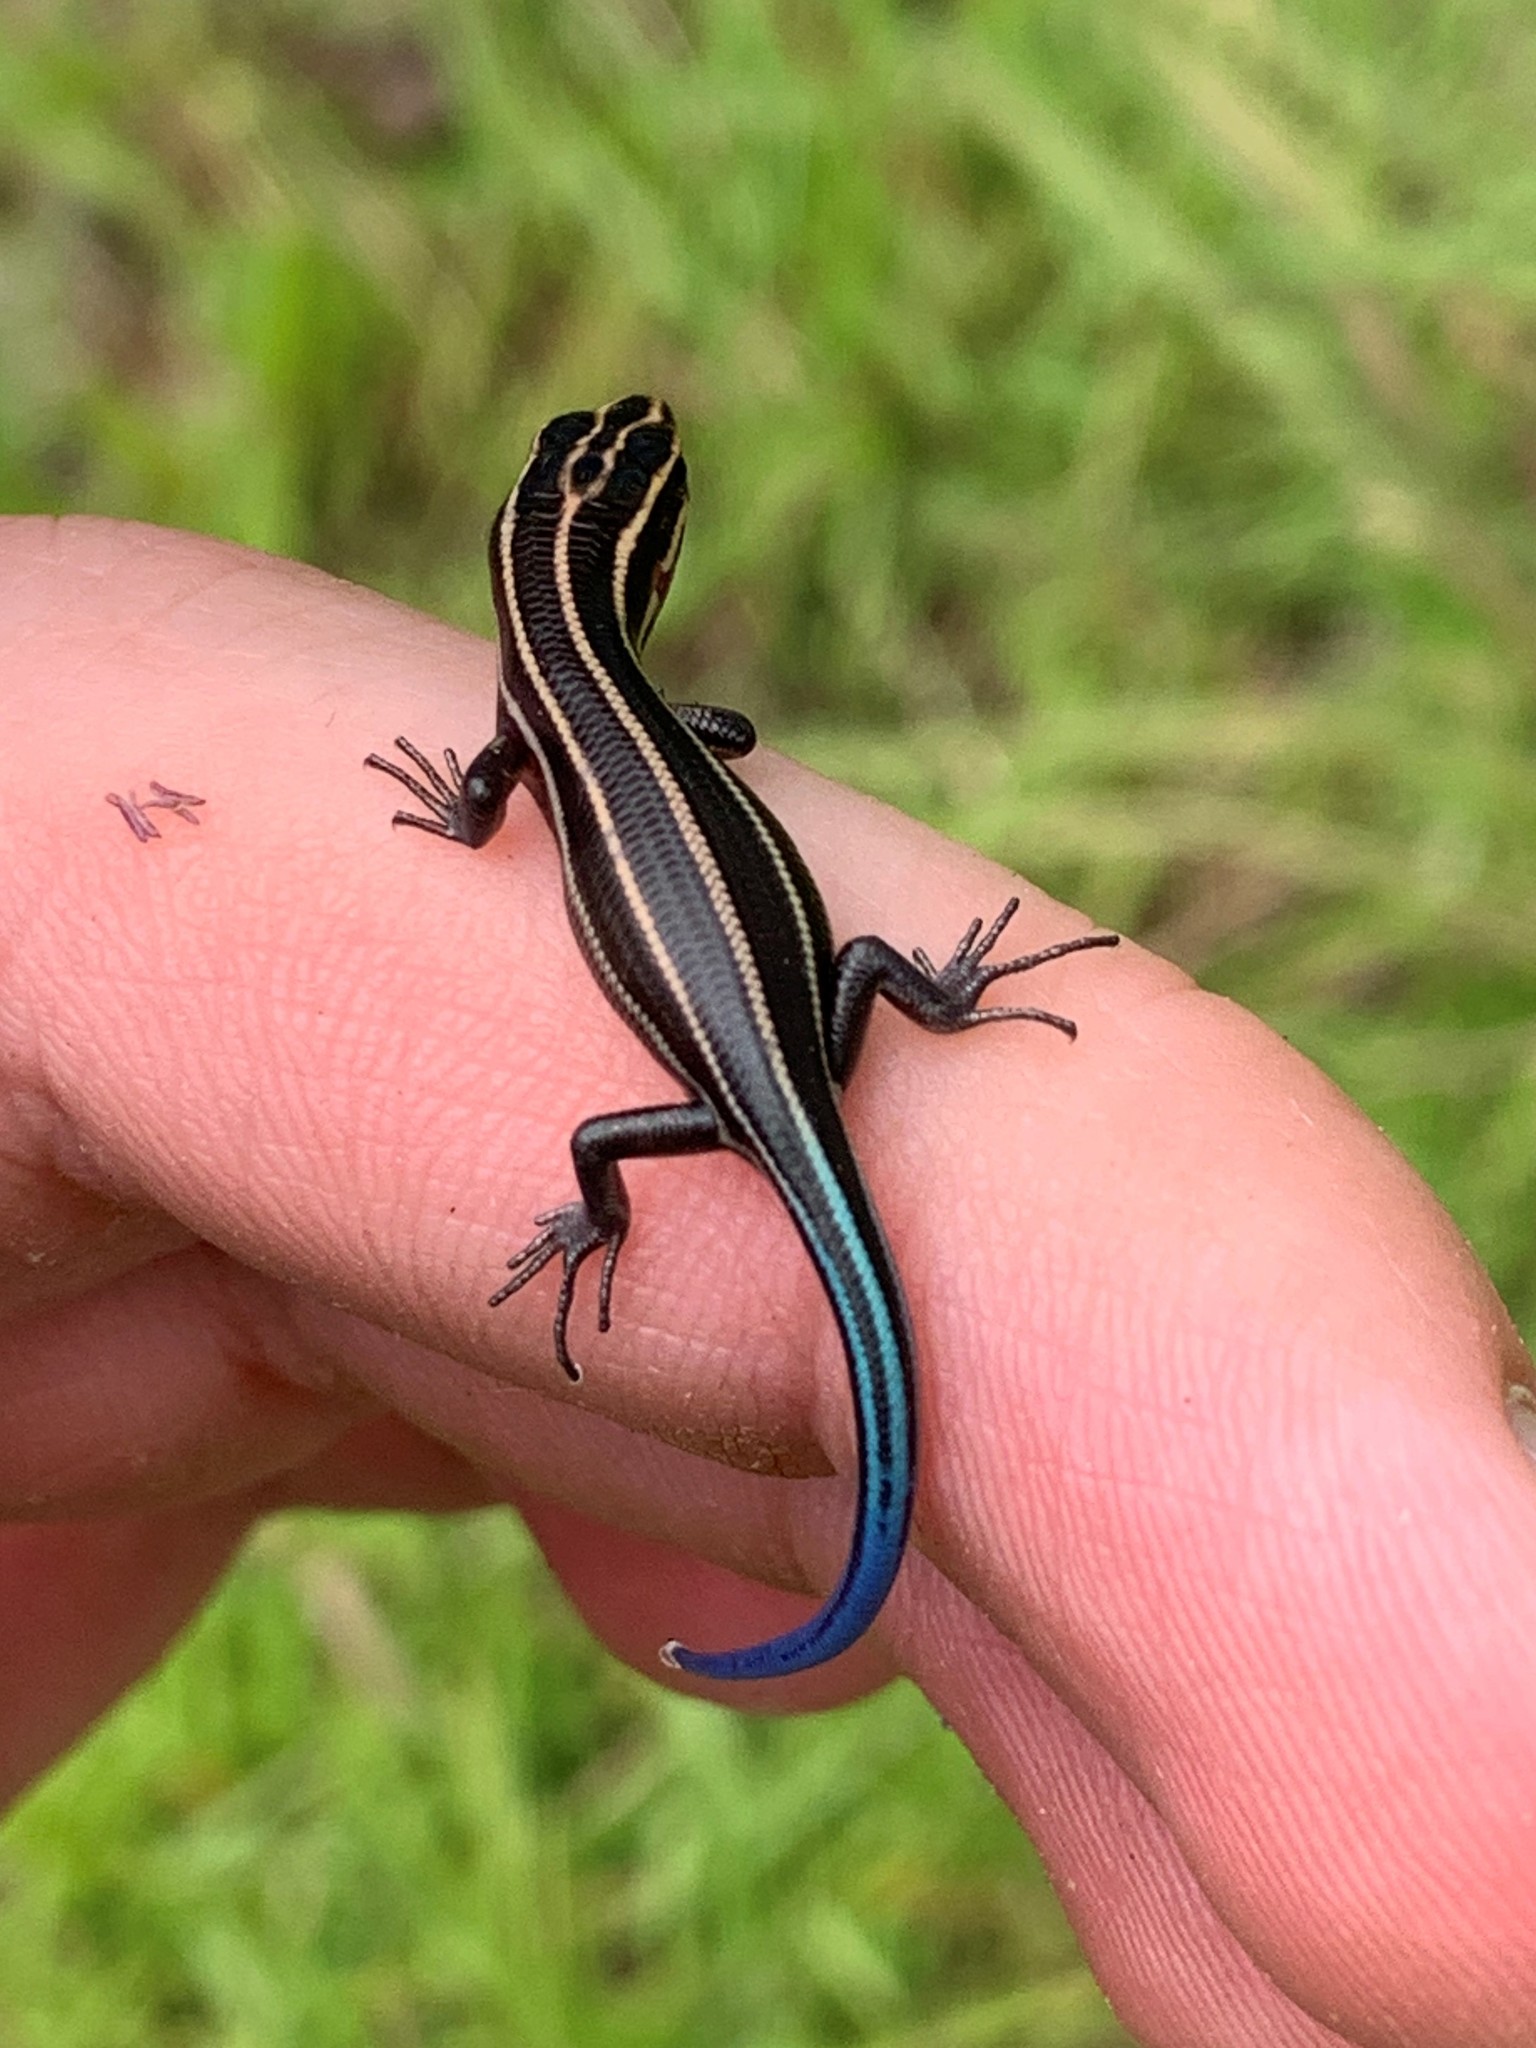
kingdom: Animalia
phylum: Chordata
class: Squamata
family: Scincidae
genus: Plestiodon
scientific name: Plestiodon
